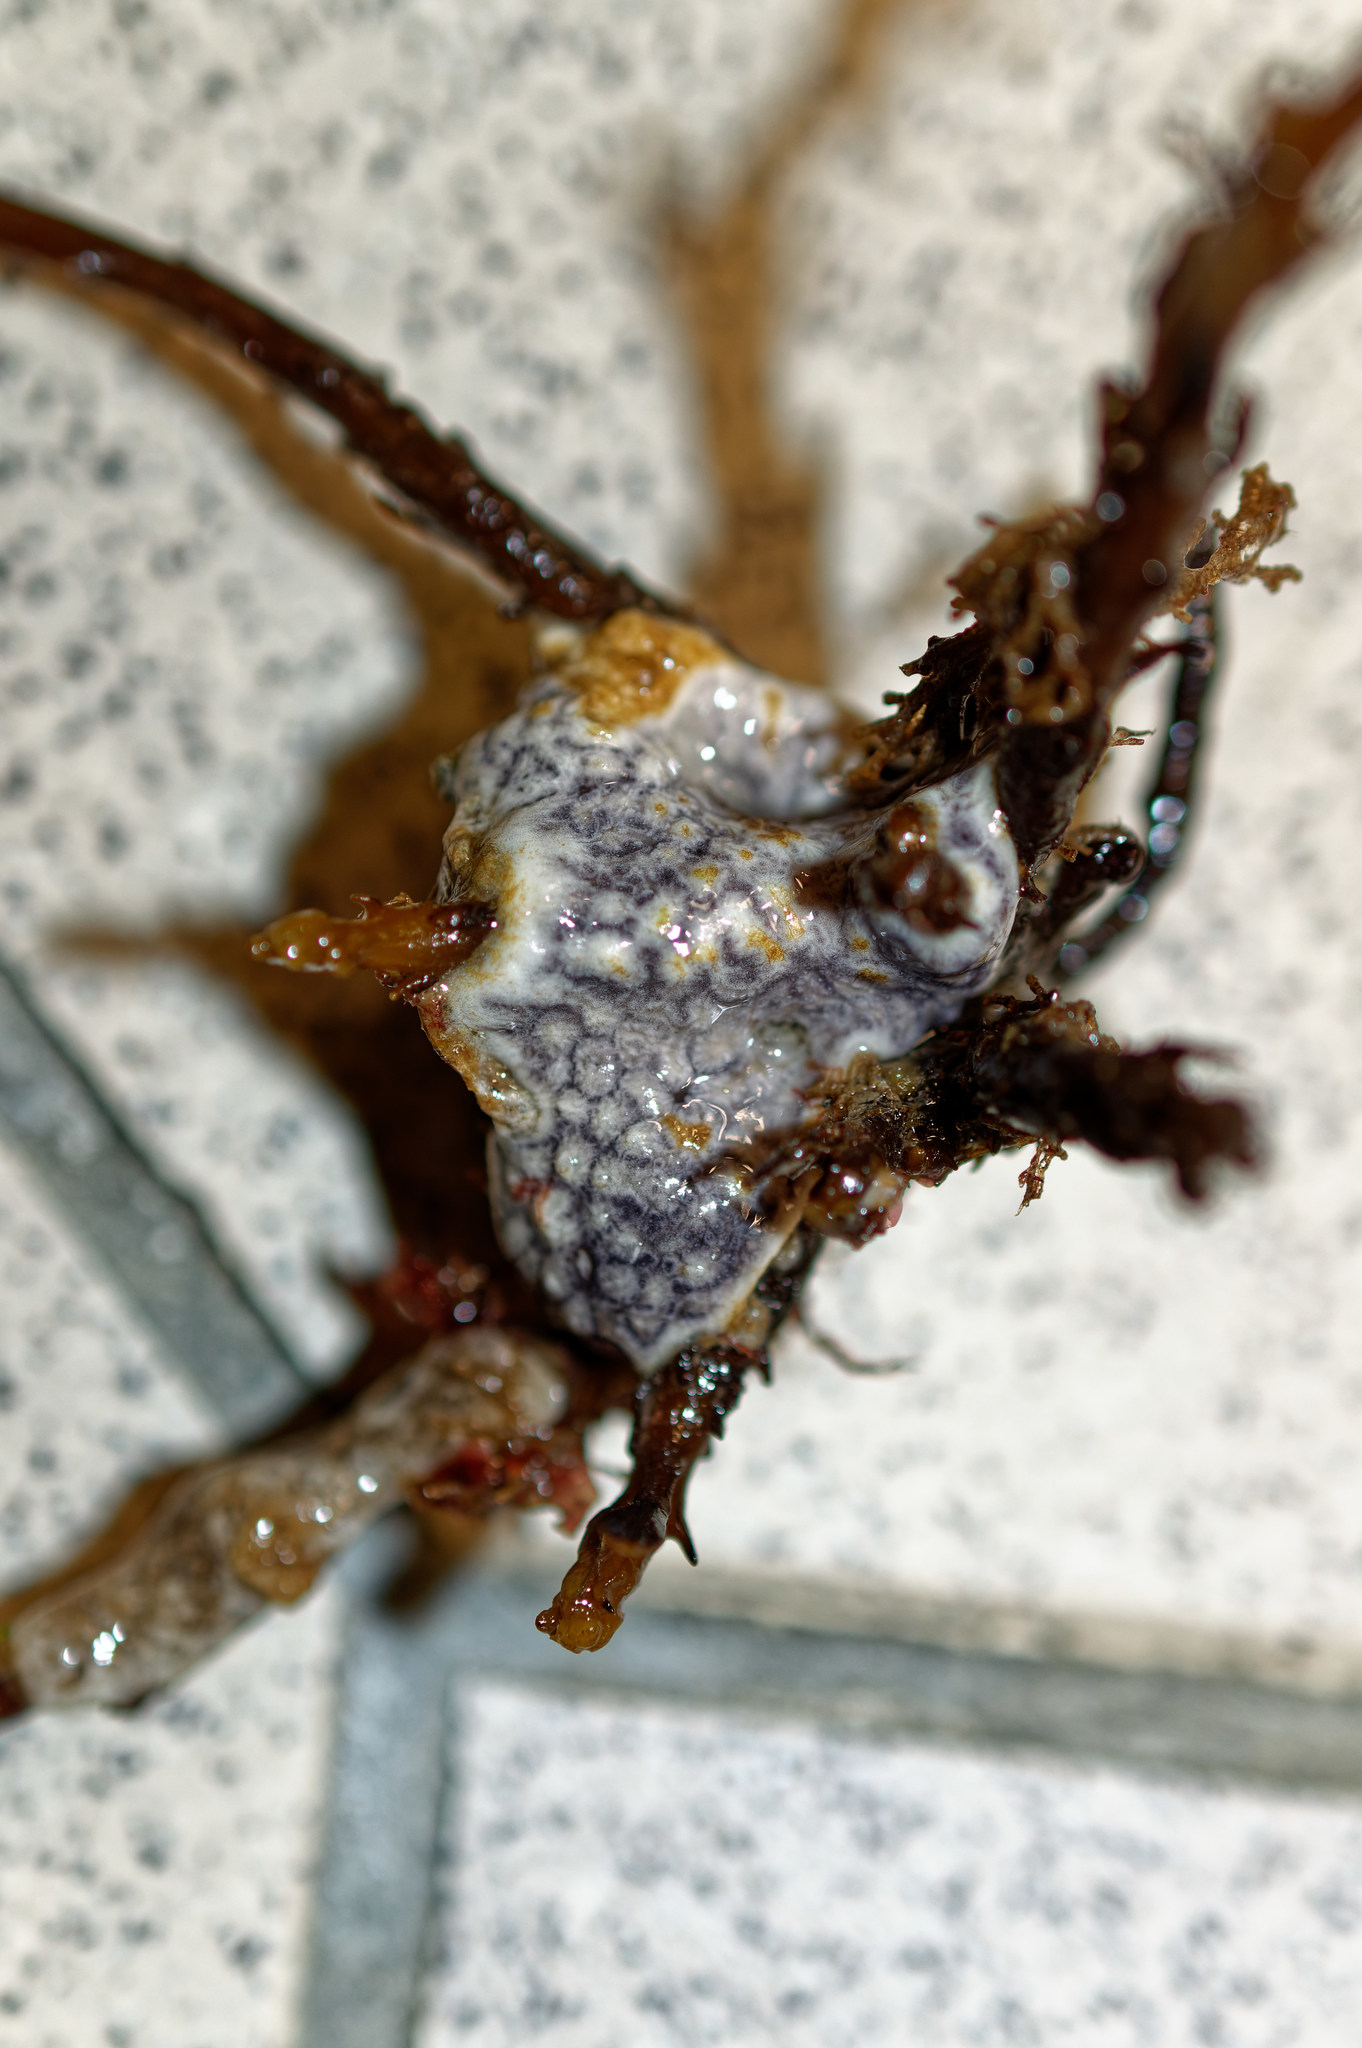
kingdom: Animalia
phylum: Chordata
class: Ascidiacea
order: Aplousobranchia
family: Didemnidae
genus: Didemnum
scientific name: Didemnum coriaceum
